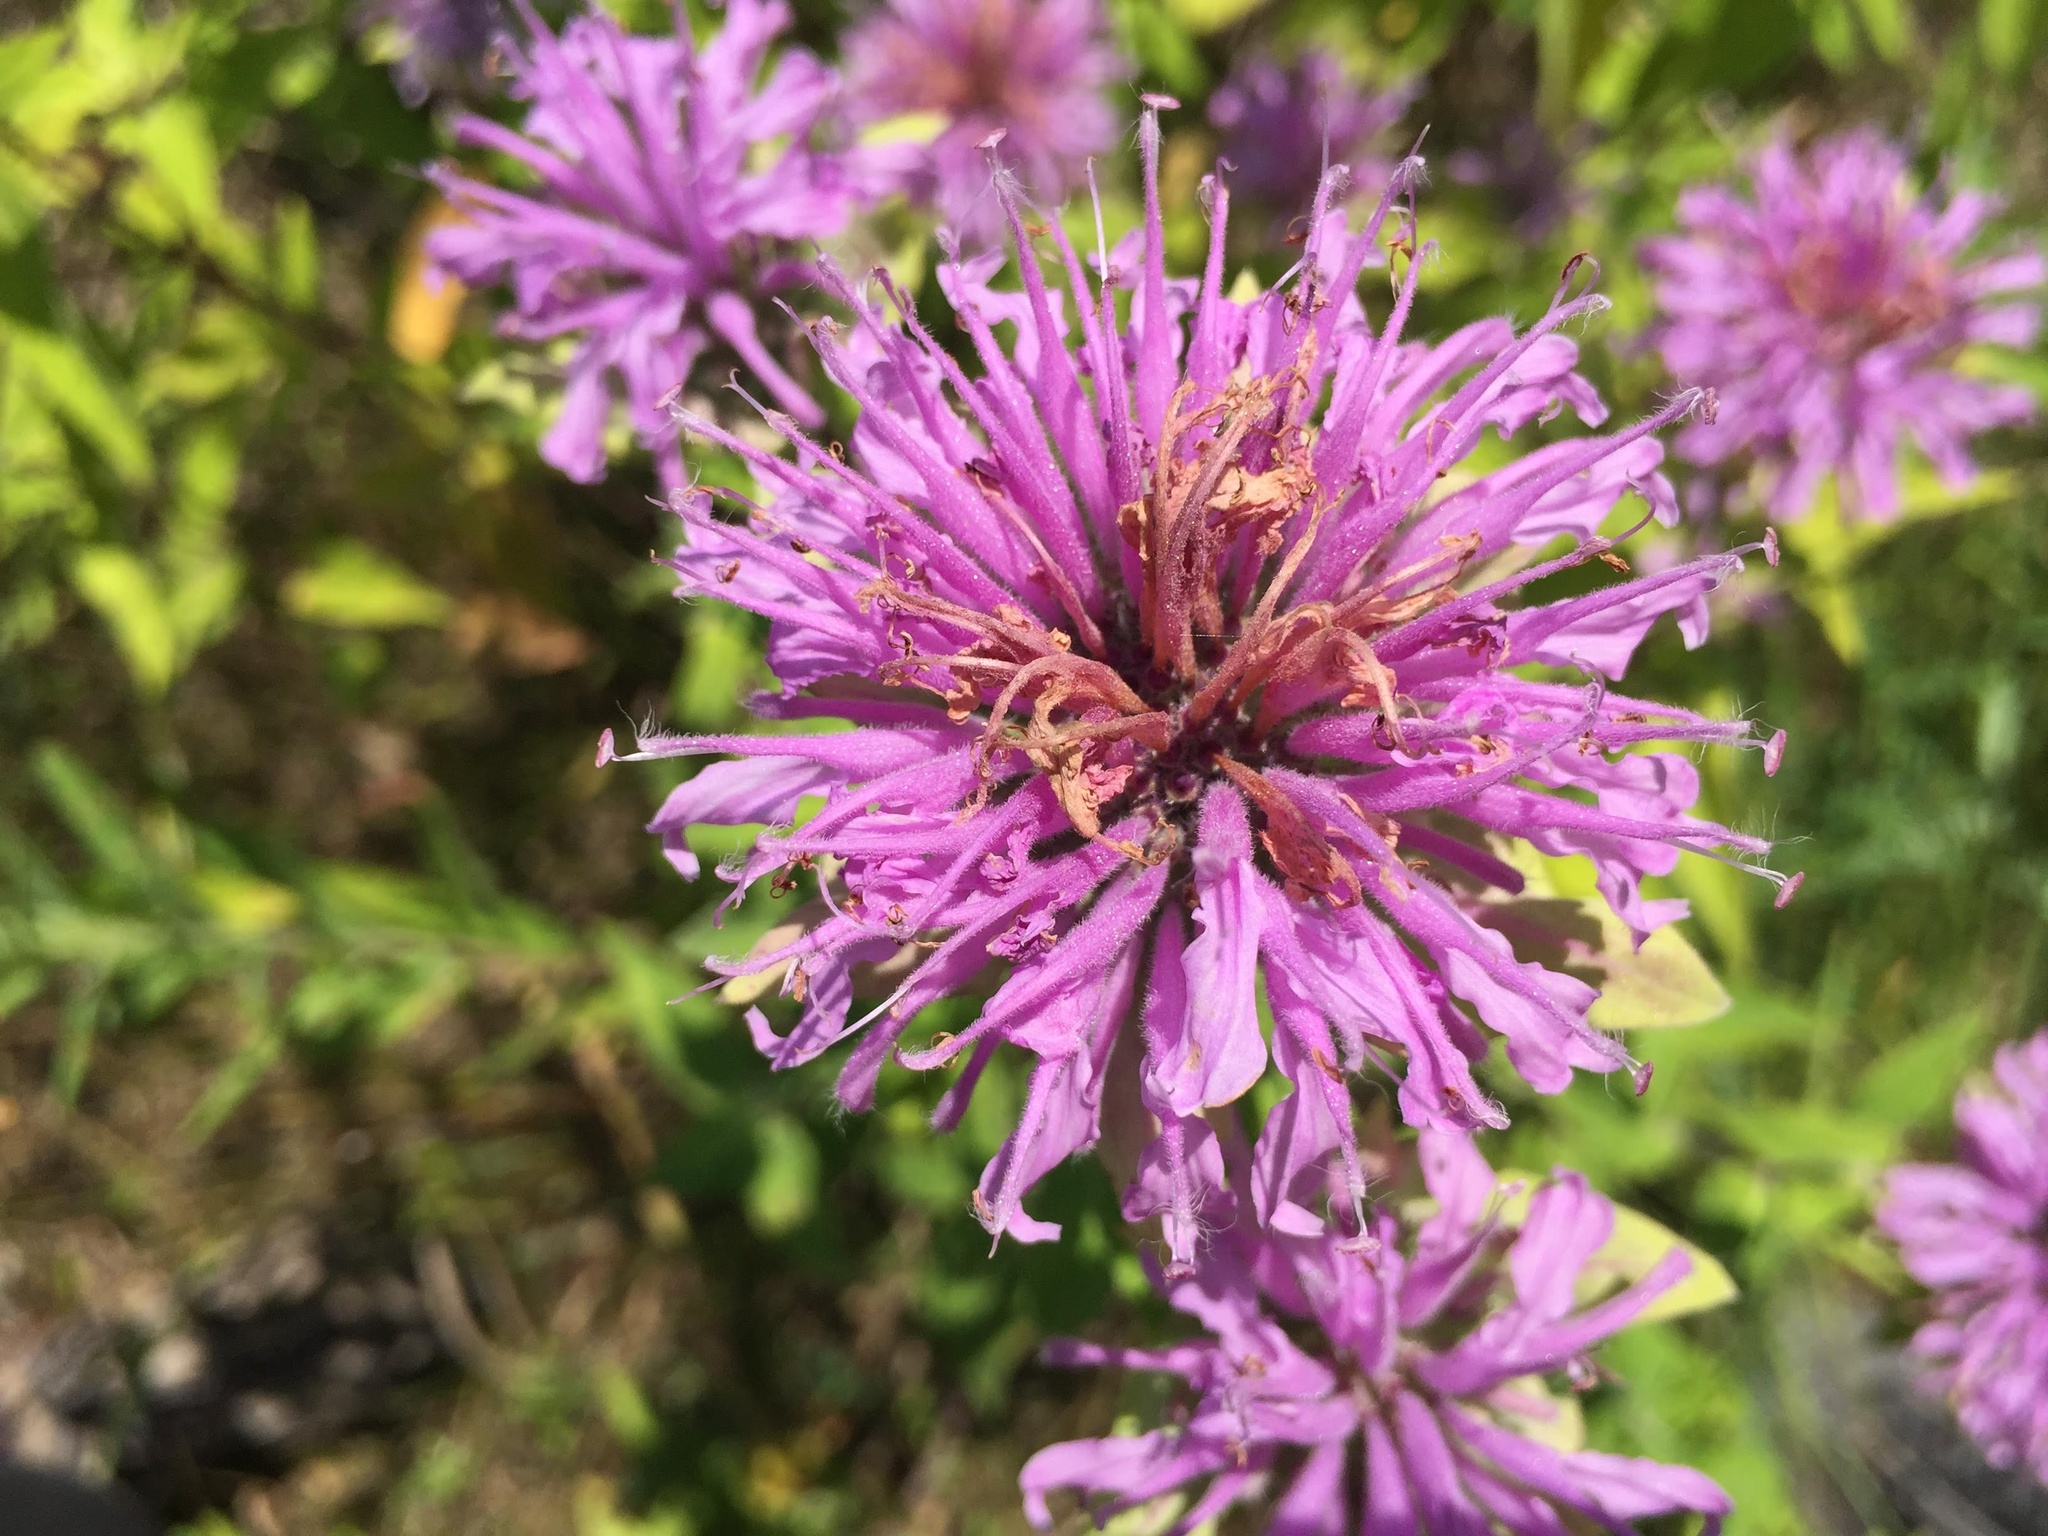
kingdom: Plantae
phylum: Tracheophyta
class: Magnoliopsida
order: Lamiales
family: Lamiaceae
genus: Monarda
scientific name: Monarda fistulosa
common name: Purple beebalm
